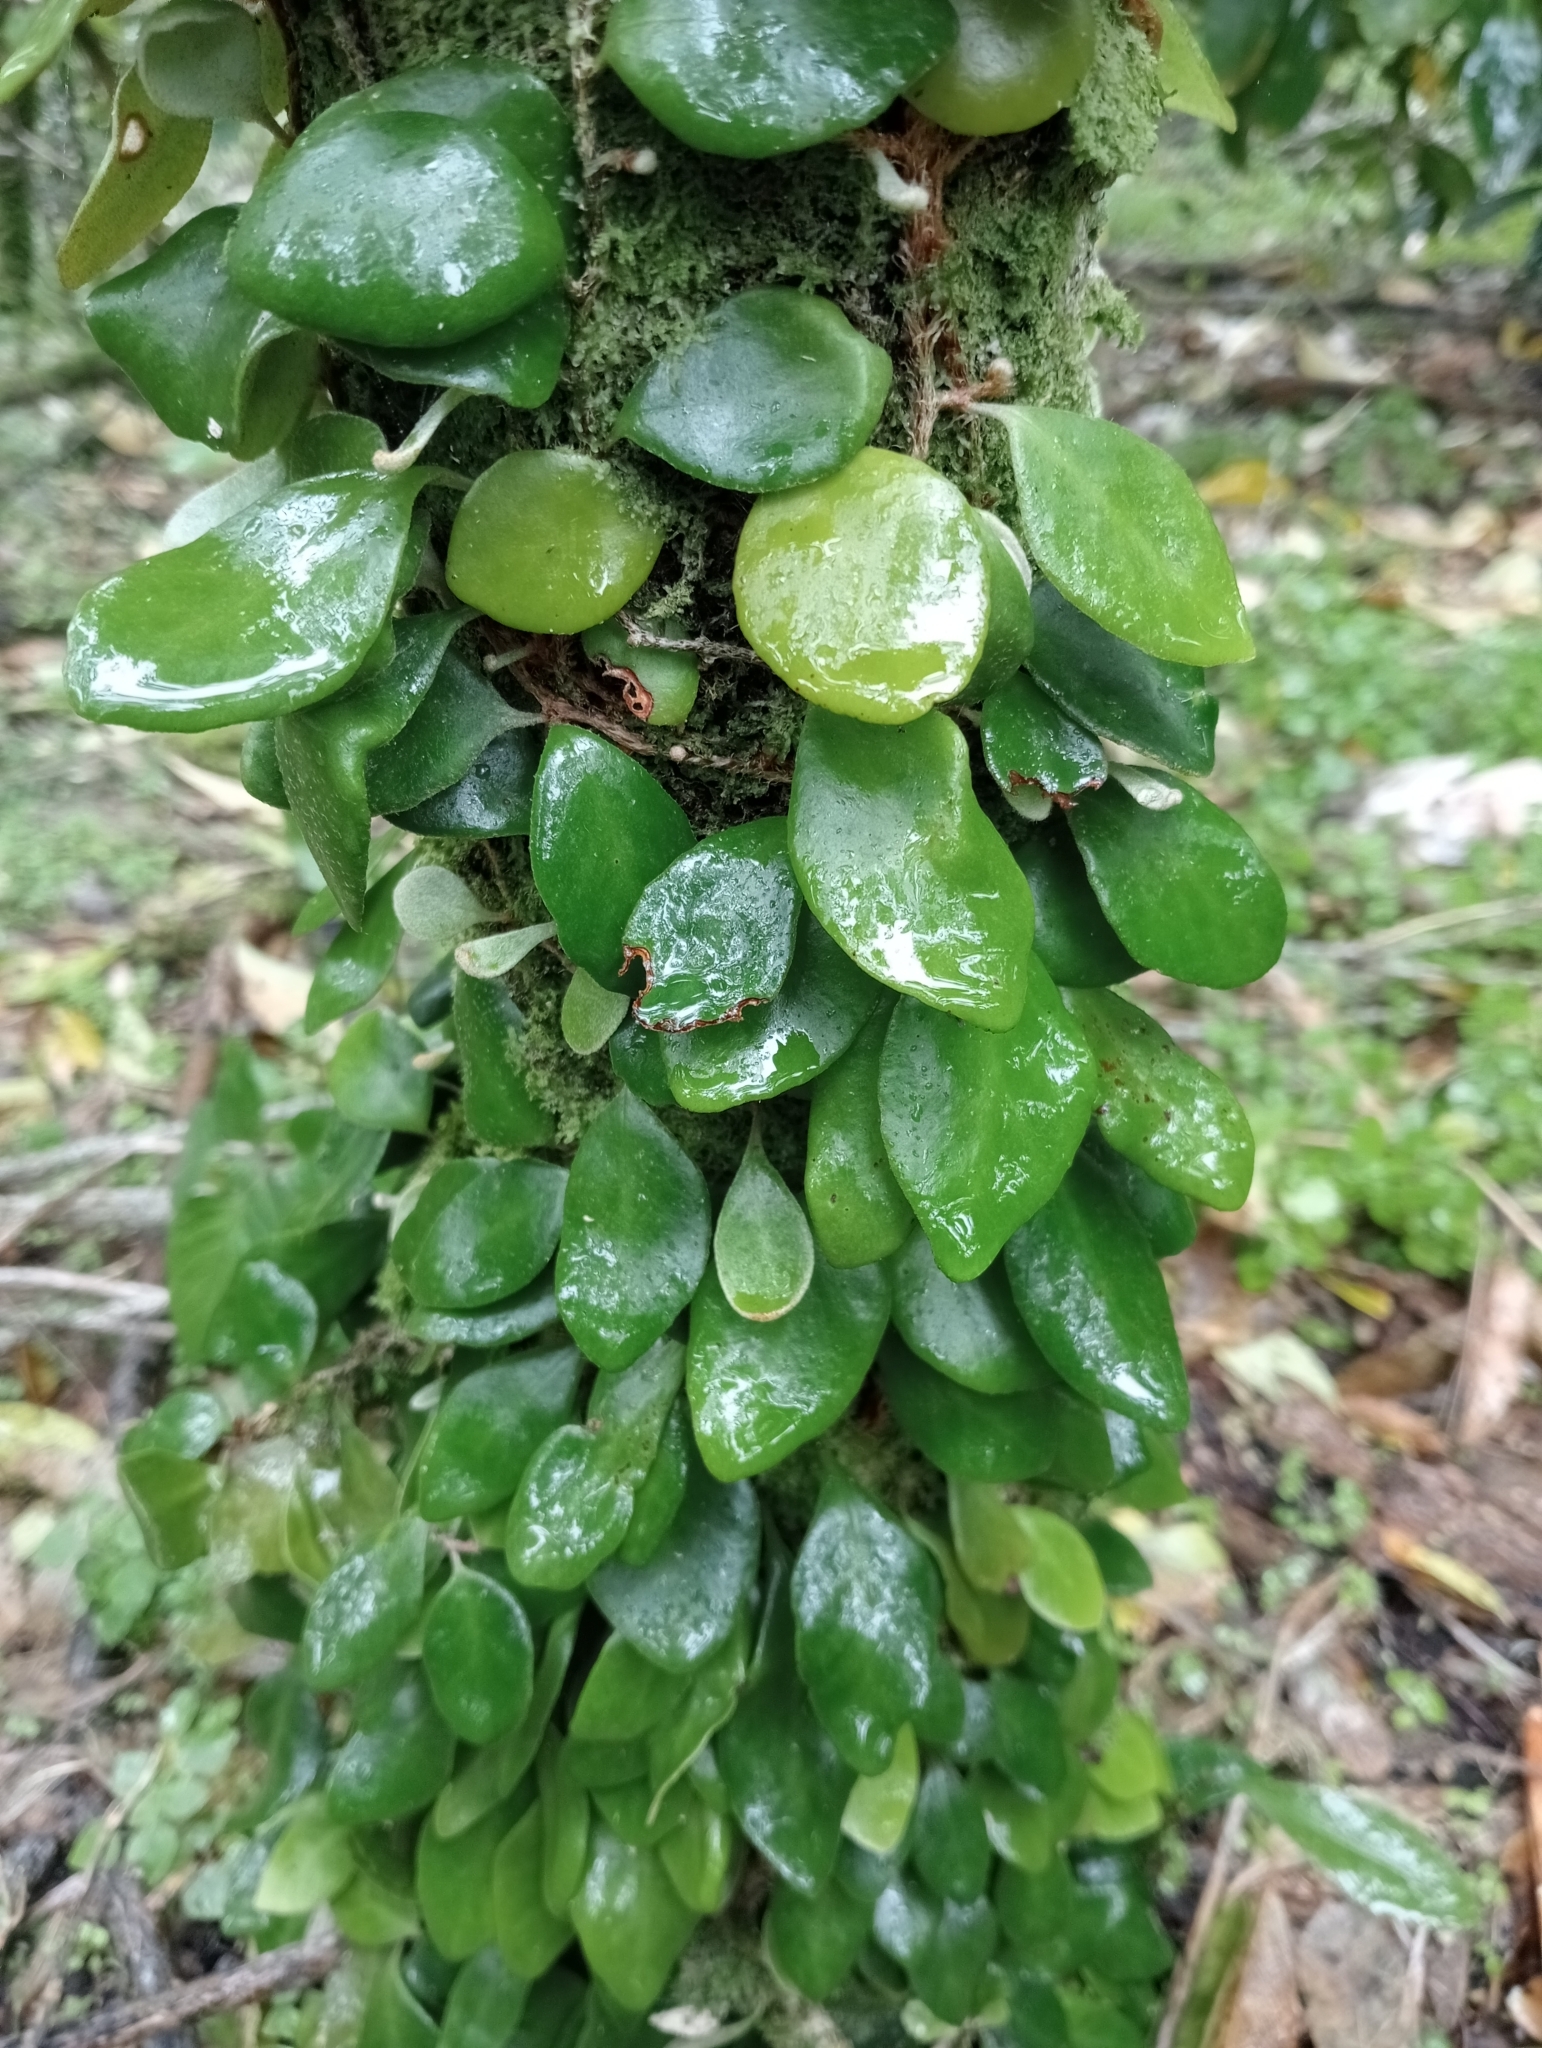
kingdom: Plantae
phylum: Tracheophyta
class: Polypodiopsida
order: Polypodiales
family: Polypodiaceae
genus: Pyrrosia
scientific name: Pyrrosia eleagnifolia
